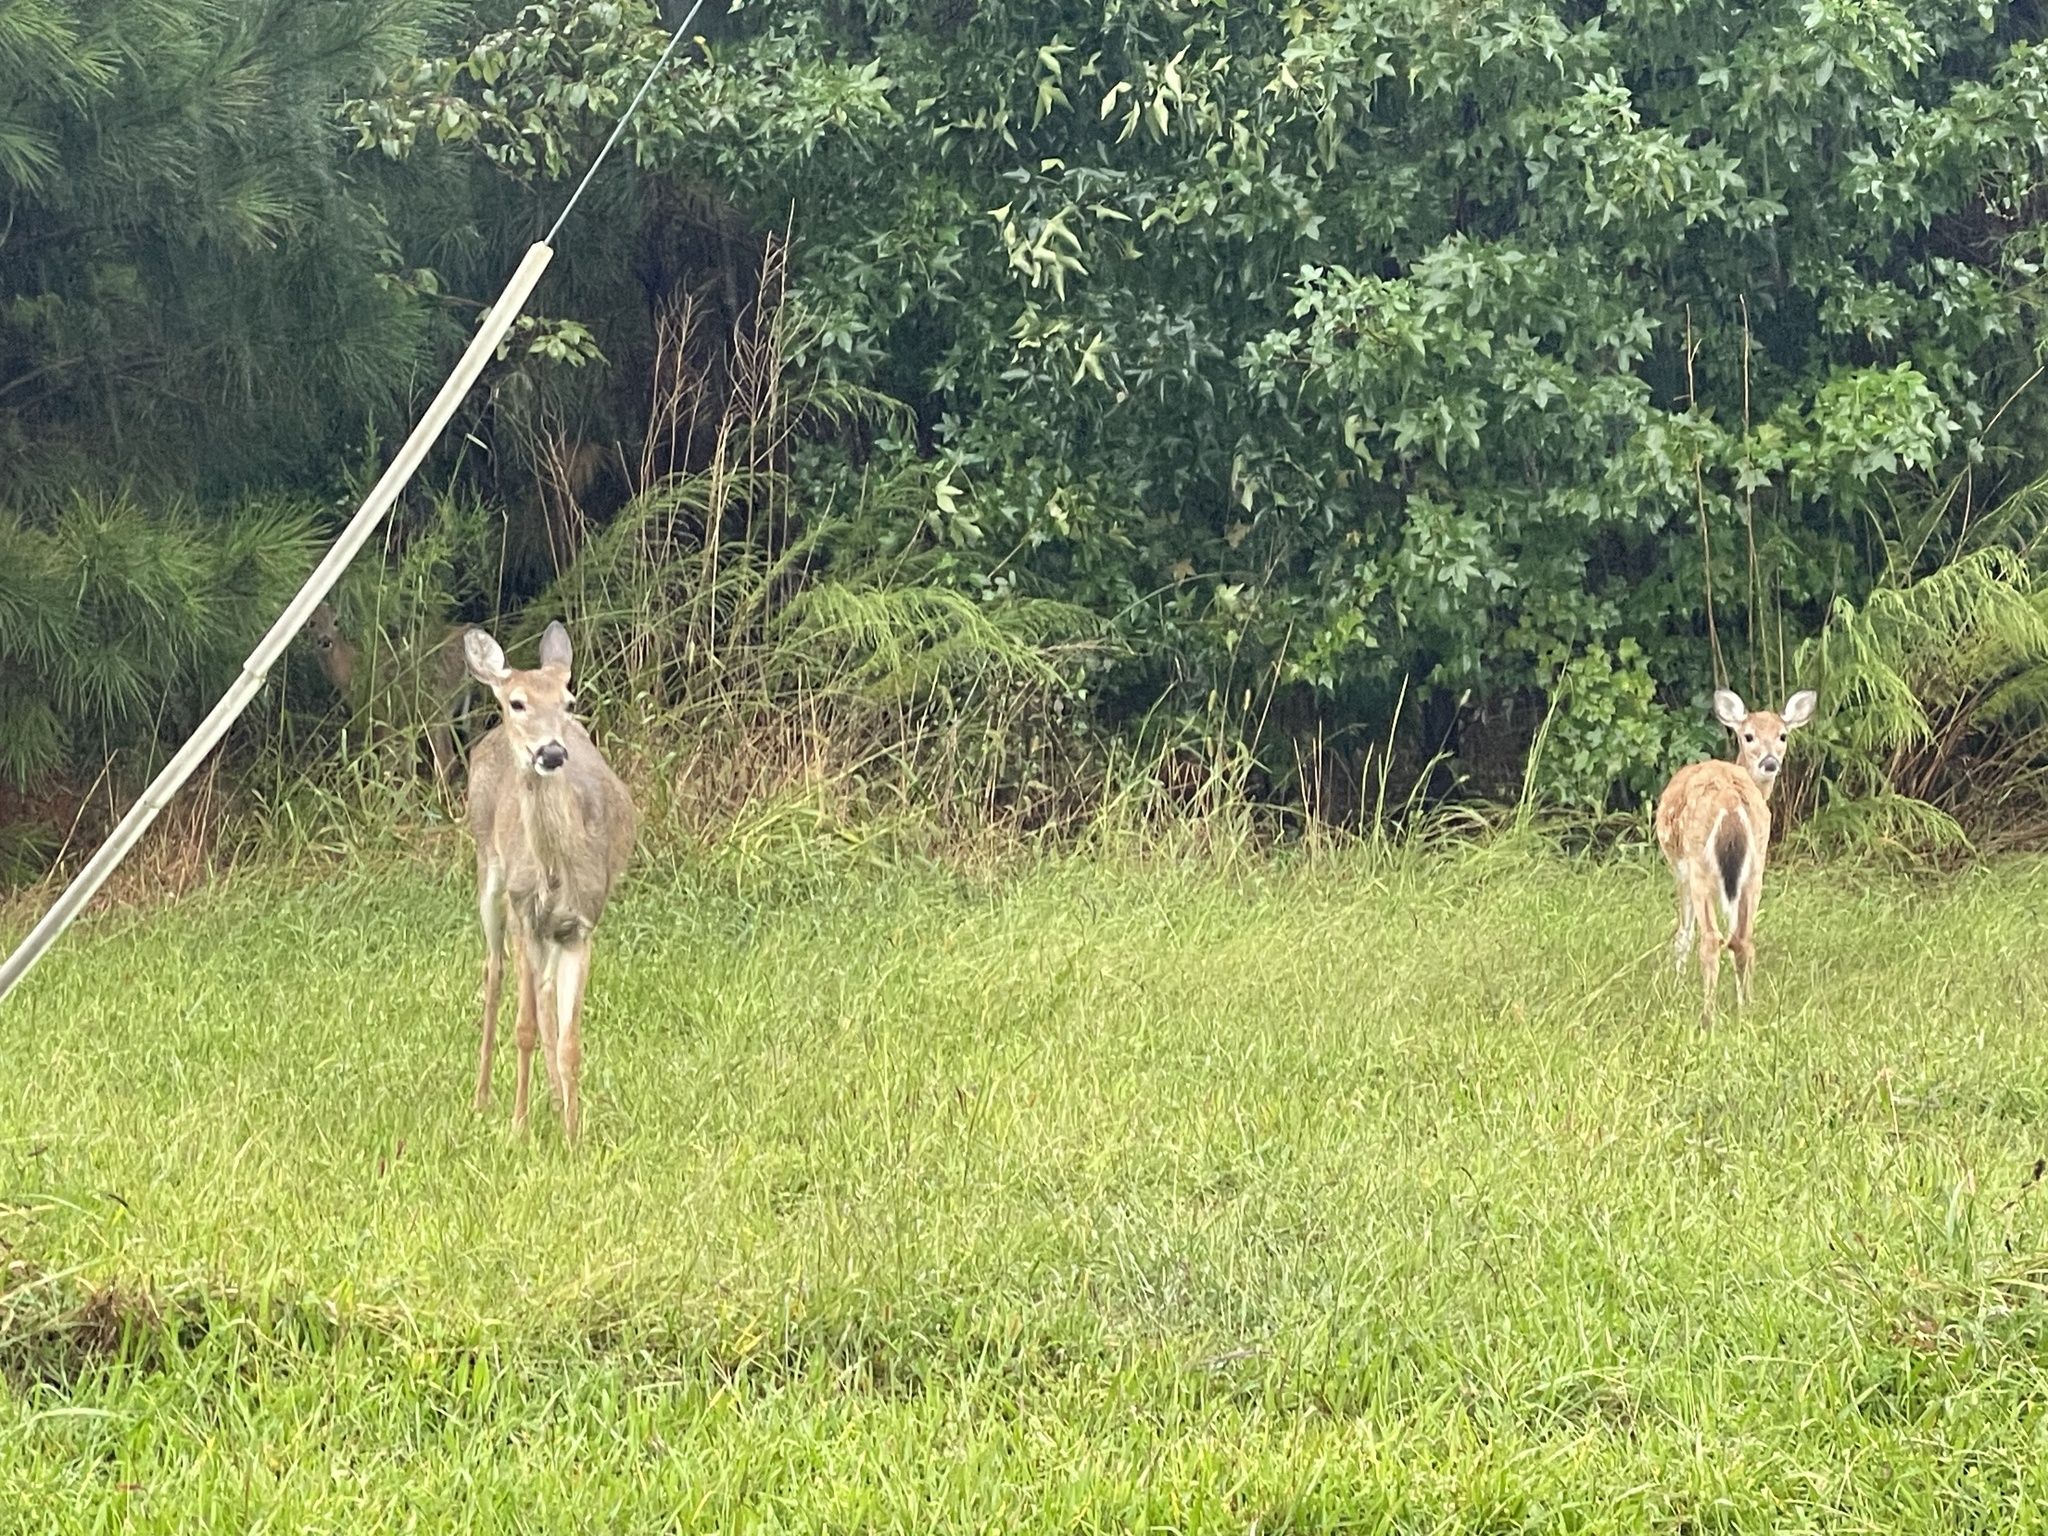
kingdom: Animalia
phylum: Chordata
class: Mammalia
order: Artiodactyla
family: Cervidae
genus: Odocoileus
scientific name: Odocoileus virginianus
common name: White-tailed deer
